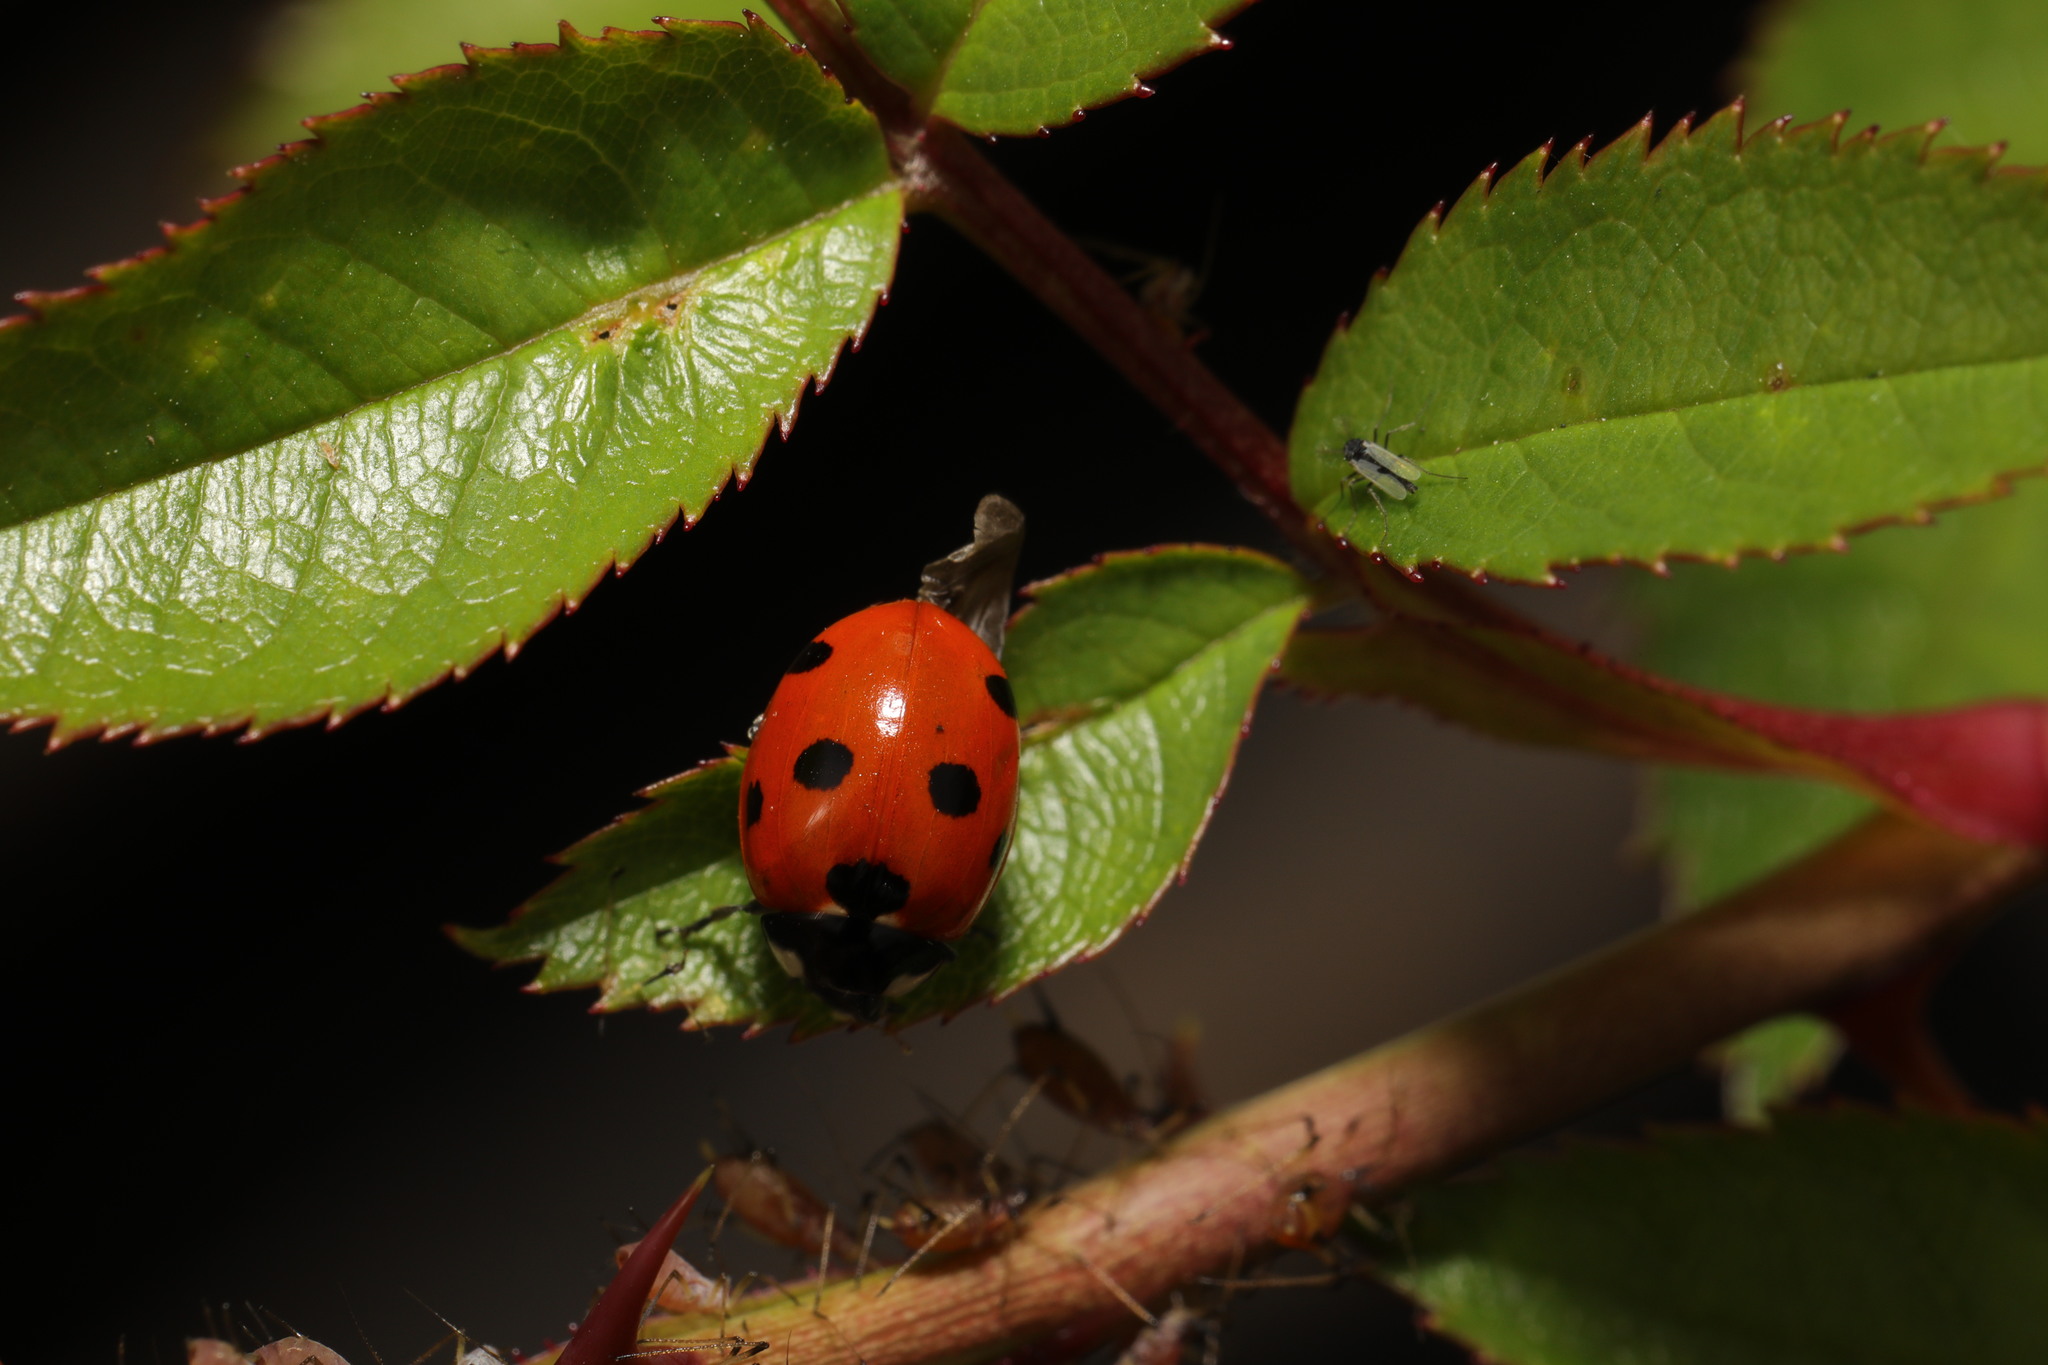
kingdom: Animalia
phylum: Arthropoda
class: Insecta
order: Coleoptera
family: Coccinellidae
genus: Coccinella
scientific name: Coccinella septempunctata
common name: Sevenspotted lady beetle
